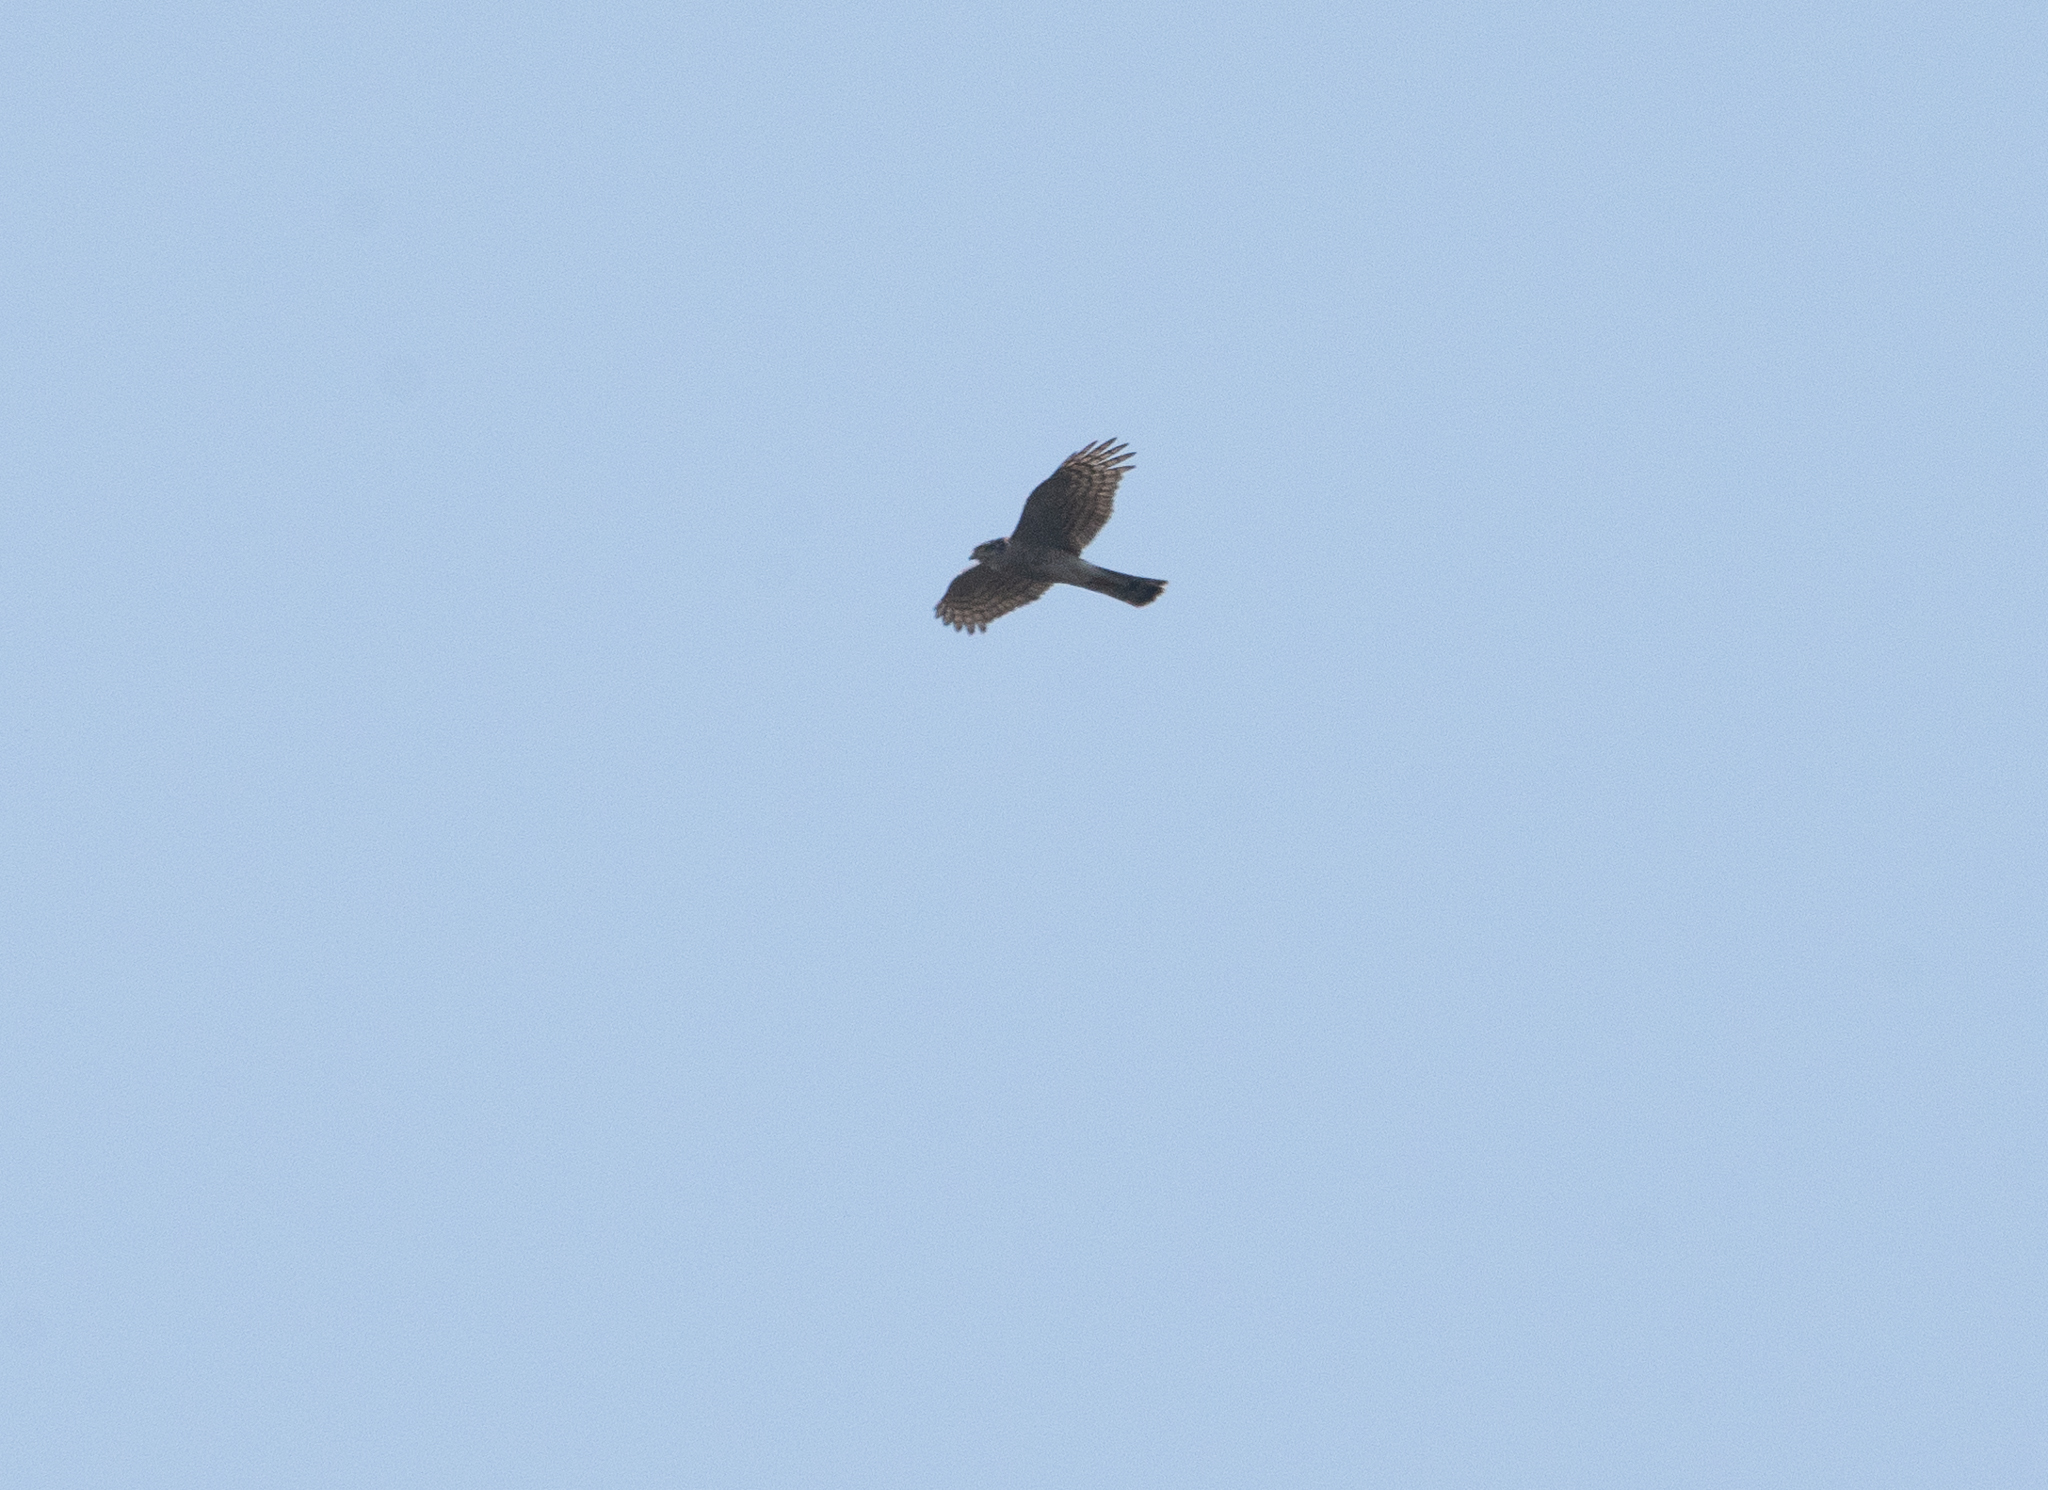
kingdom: Animalia
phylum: Chordata
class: Aves
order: Accipitriformes
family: Accipitridae
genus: Accipiter
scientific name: Accipiter nisus
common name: Eurasian sparrowhawk
